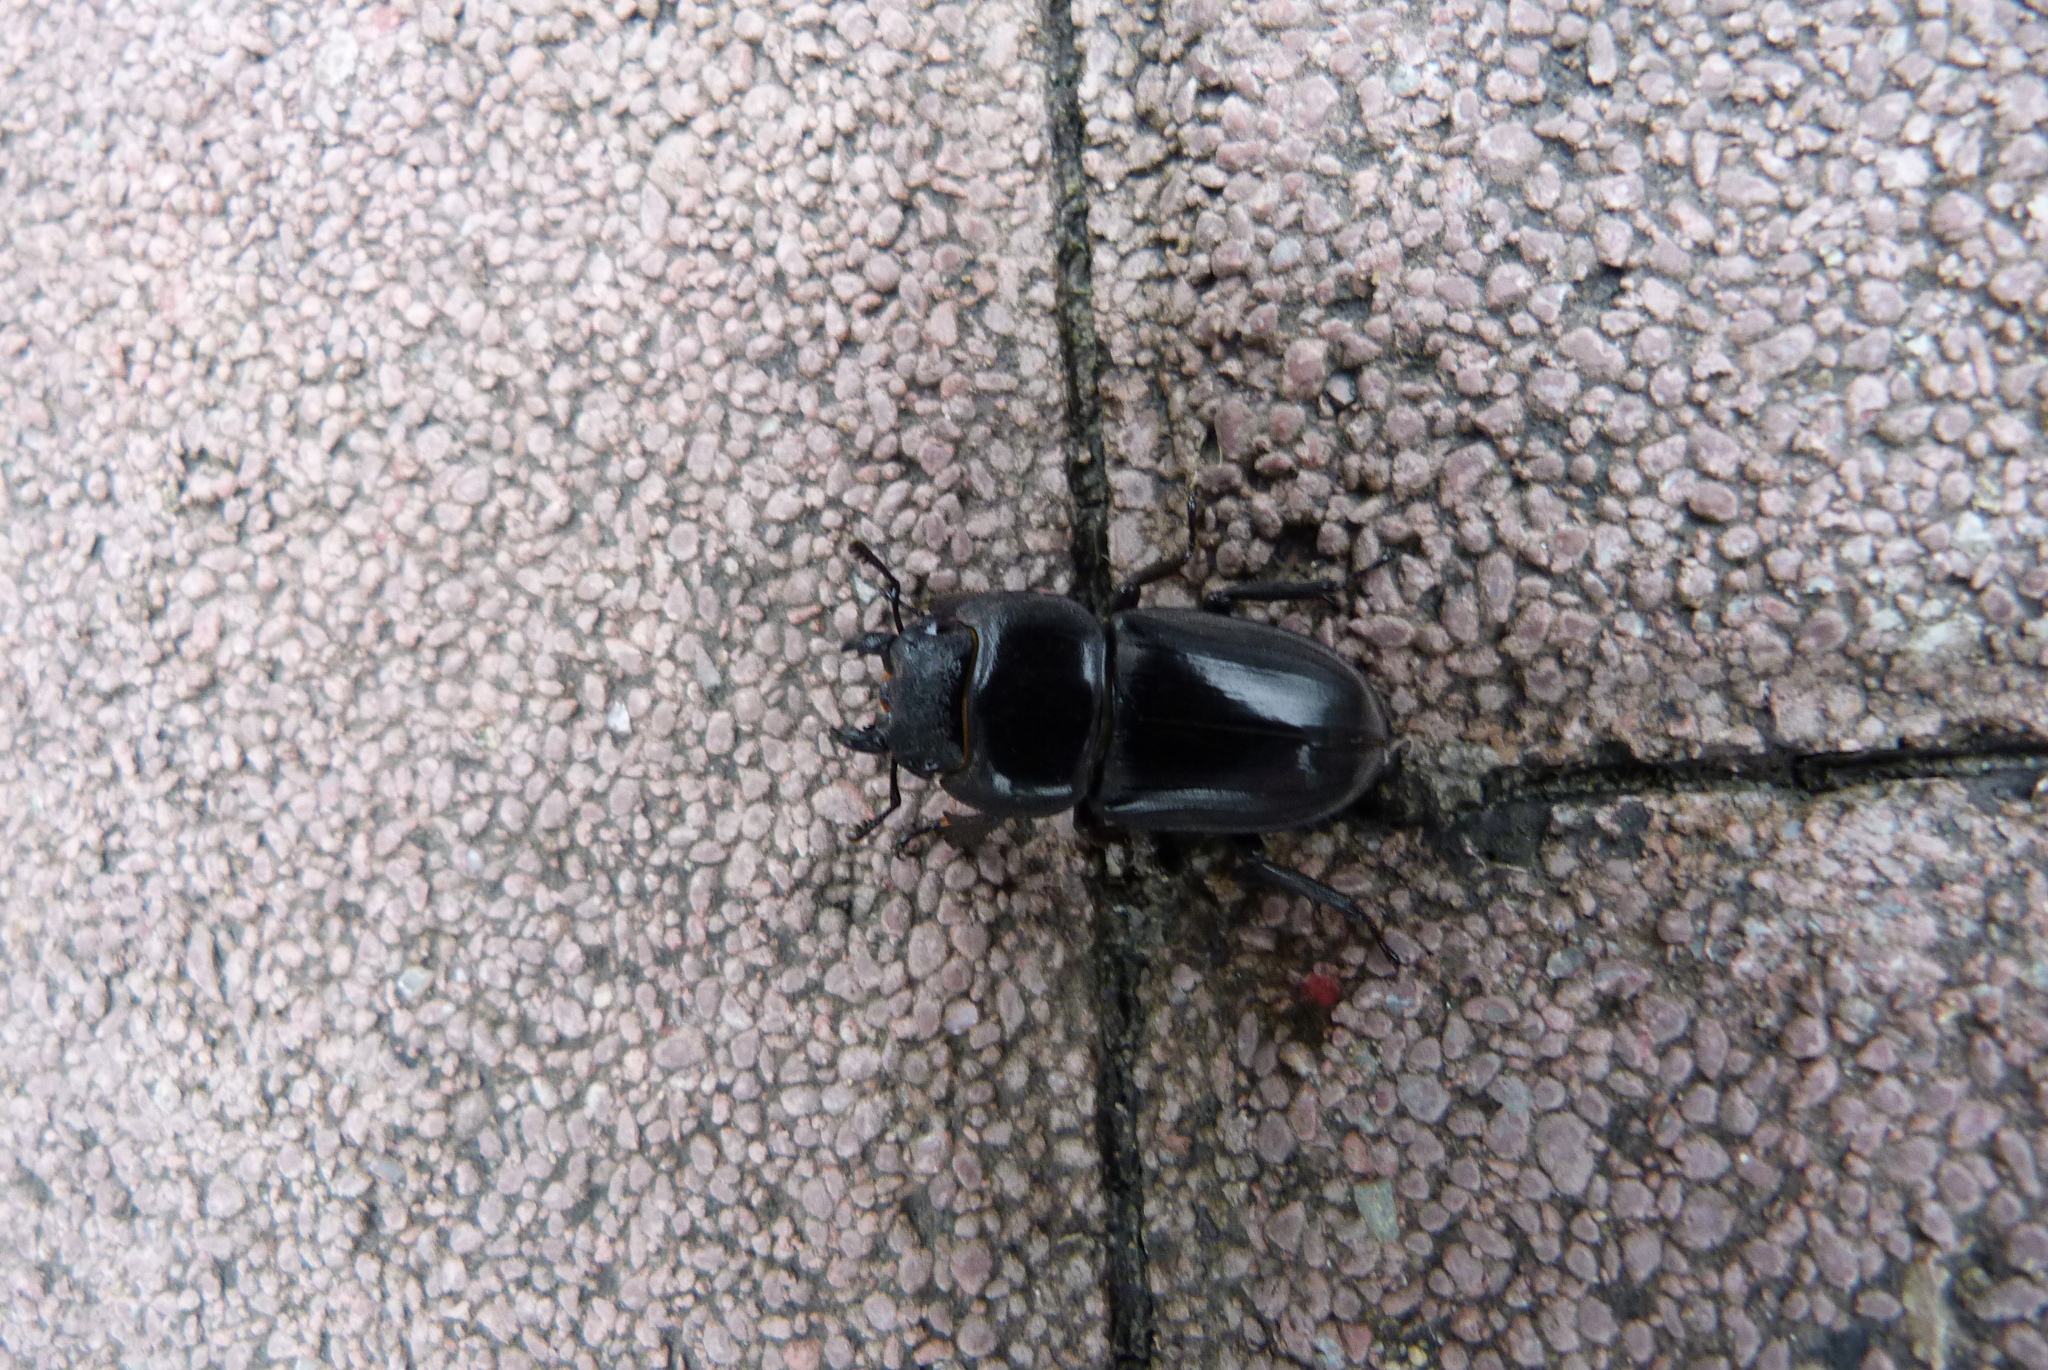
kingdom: Animalia
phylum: Arthropoda
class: Insecta
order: Coleoptera
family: Lucanidae
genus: Serrognathus
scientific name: Serrognathus titanus
